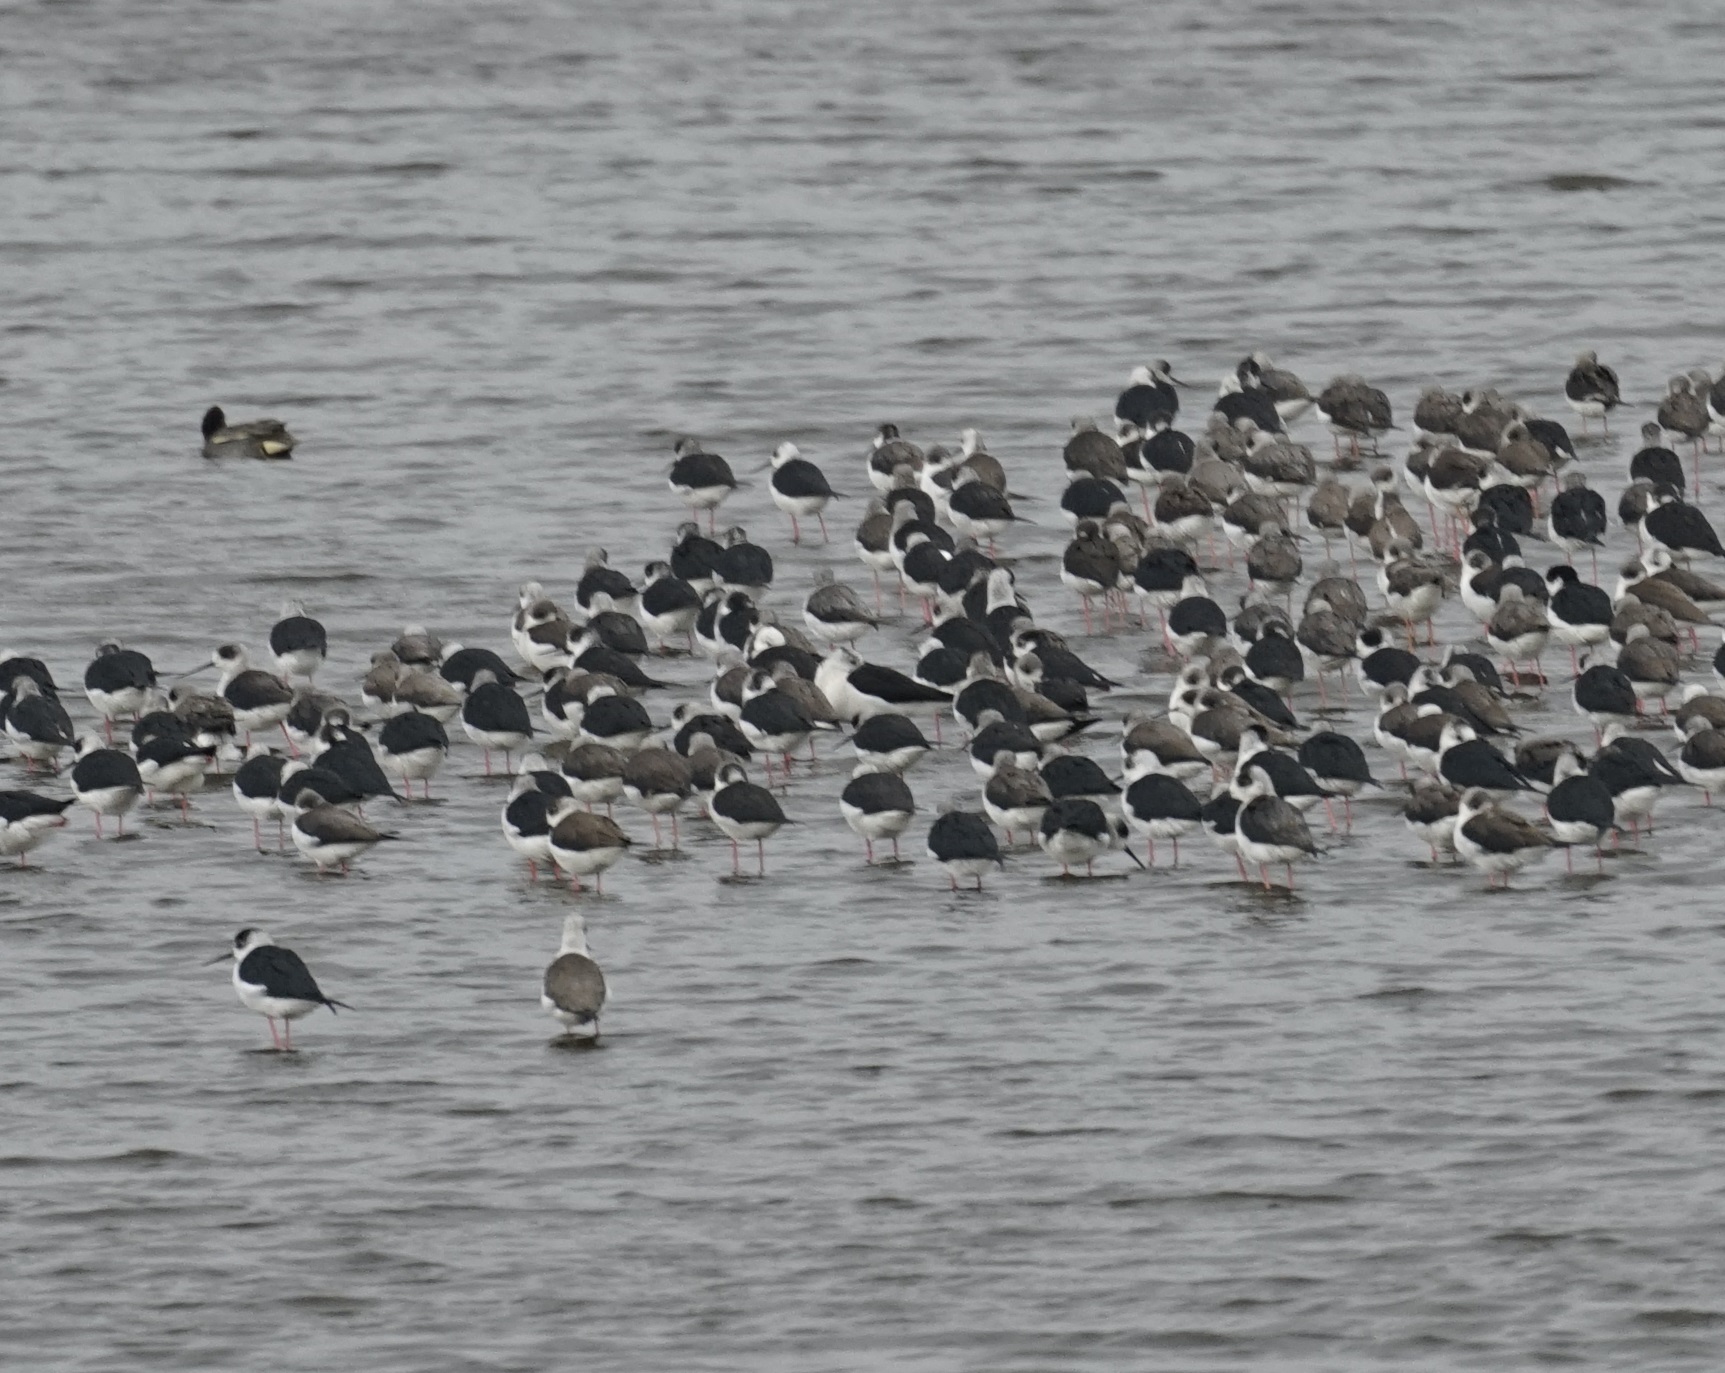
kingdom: Animalia
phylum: Chordata
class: Aves
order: Charadriiformes
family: Recurvirostridae
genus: Himantopus
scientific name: Himantopus himantopus
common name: Black-winged stilt
